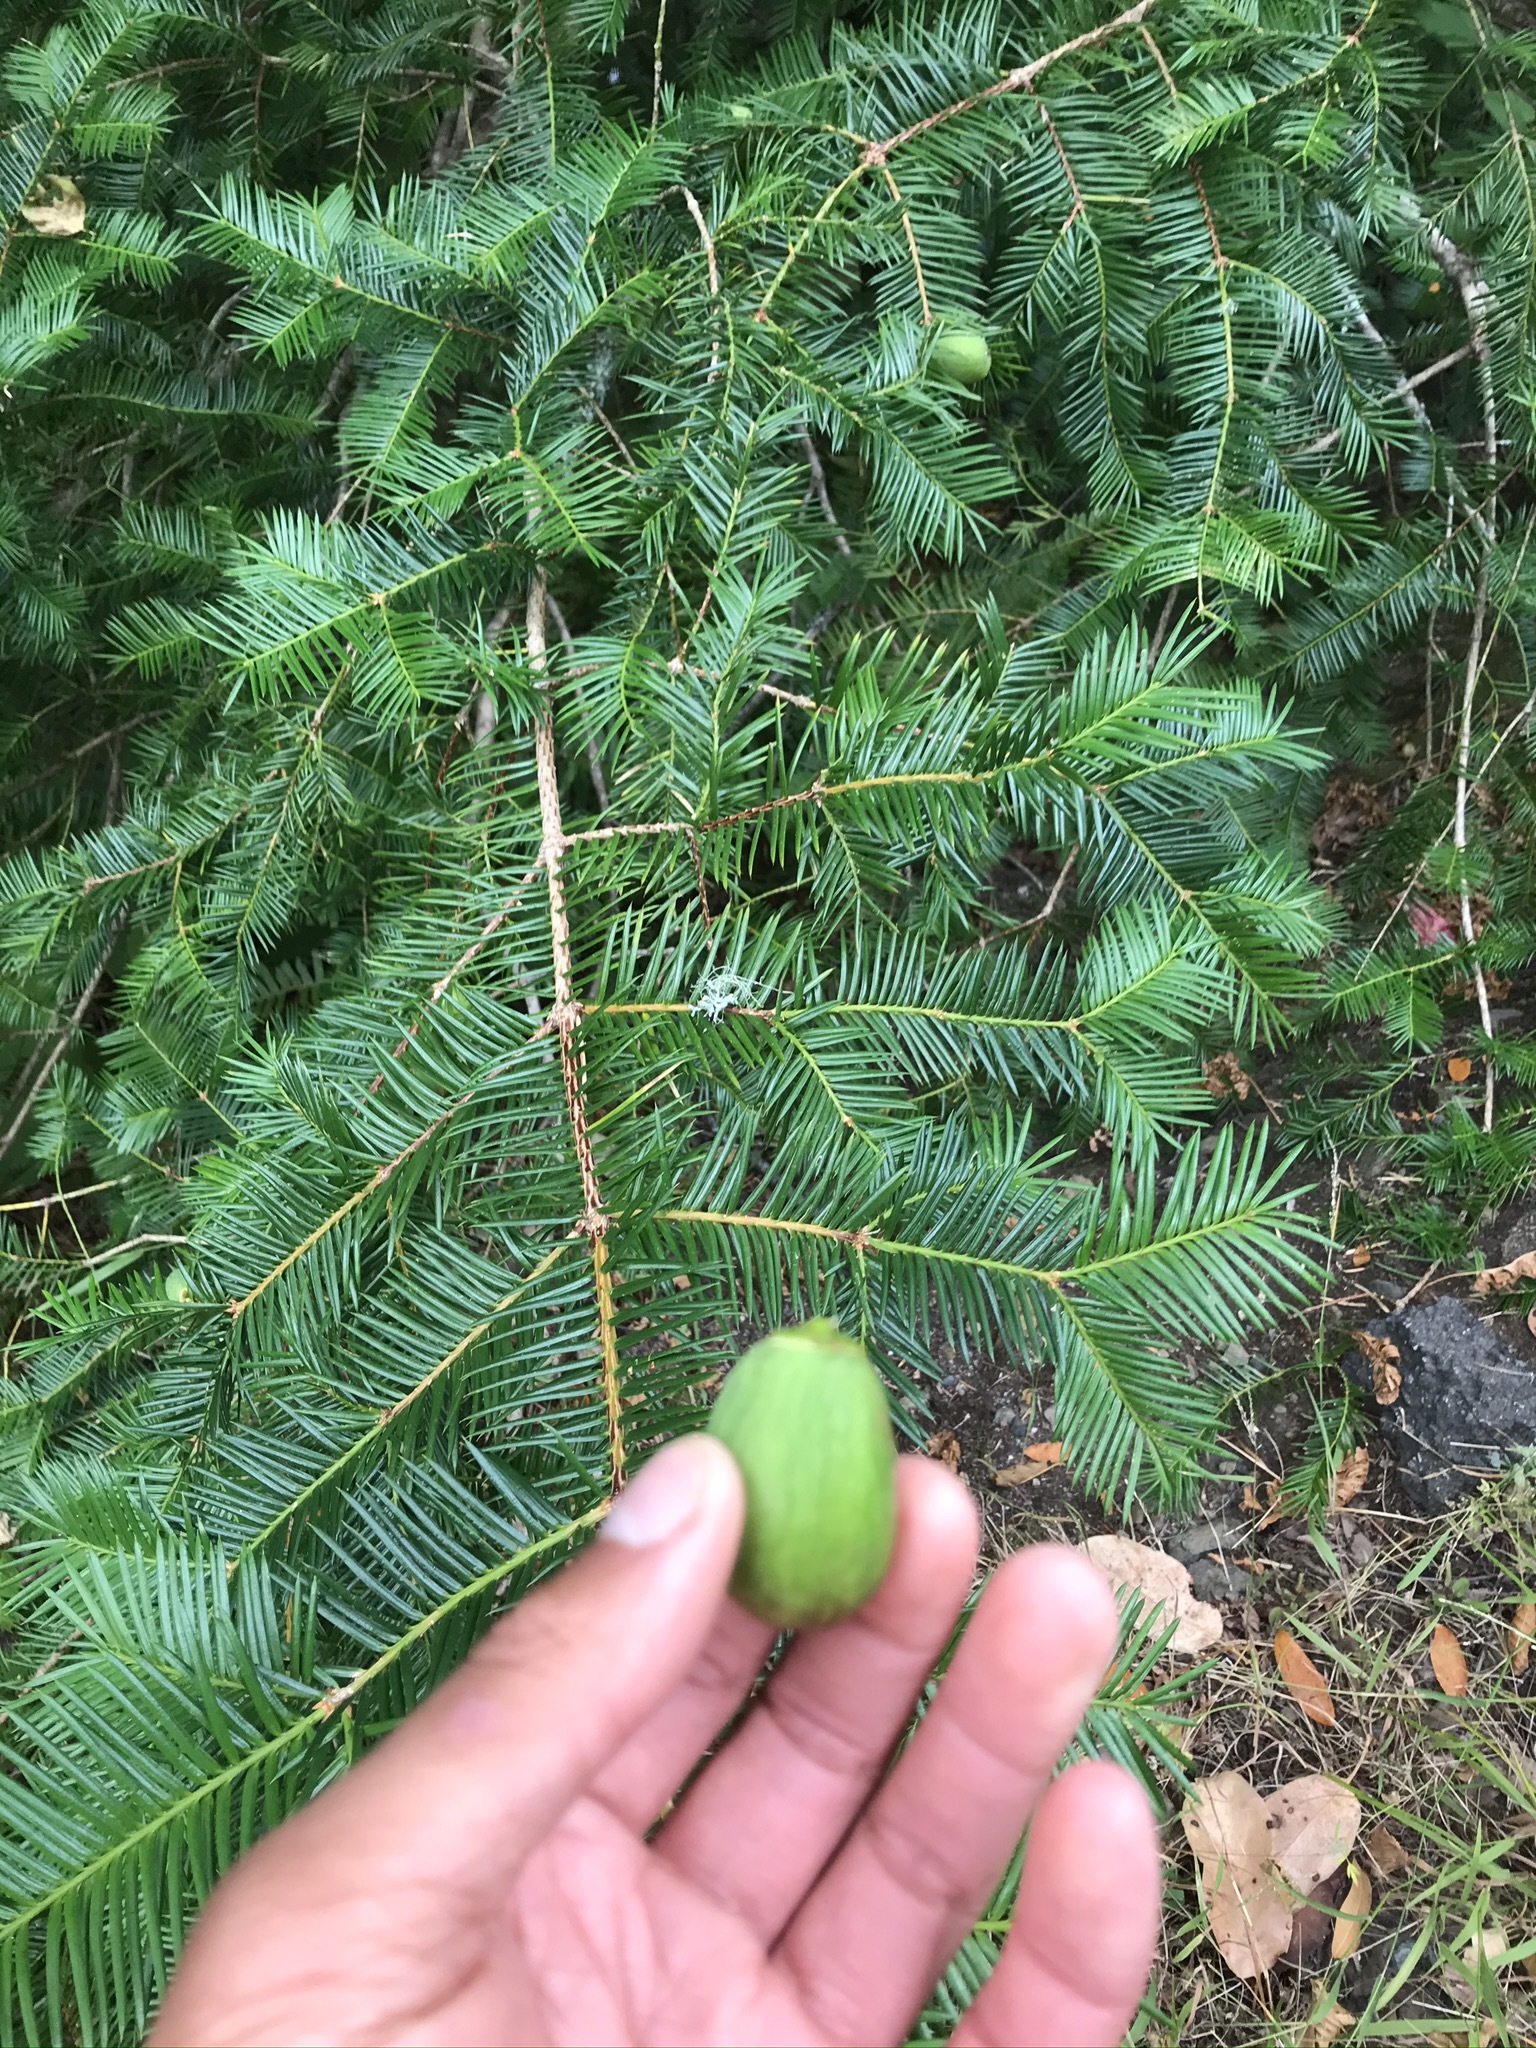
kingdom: Plantae
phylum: Tracheophyta
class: Pinopsida
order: Pinales
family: Taxaceae
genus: Torreya
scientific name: Torreya californica
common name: California torreya
